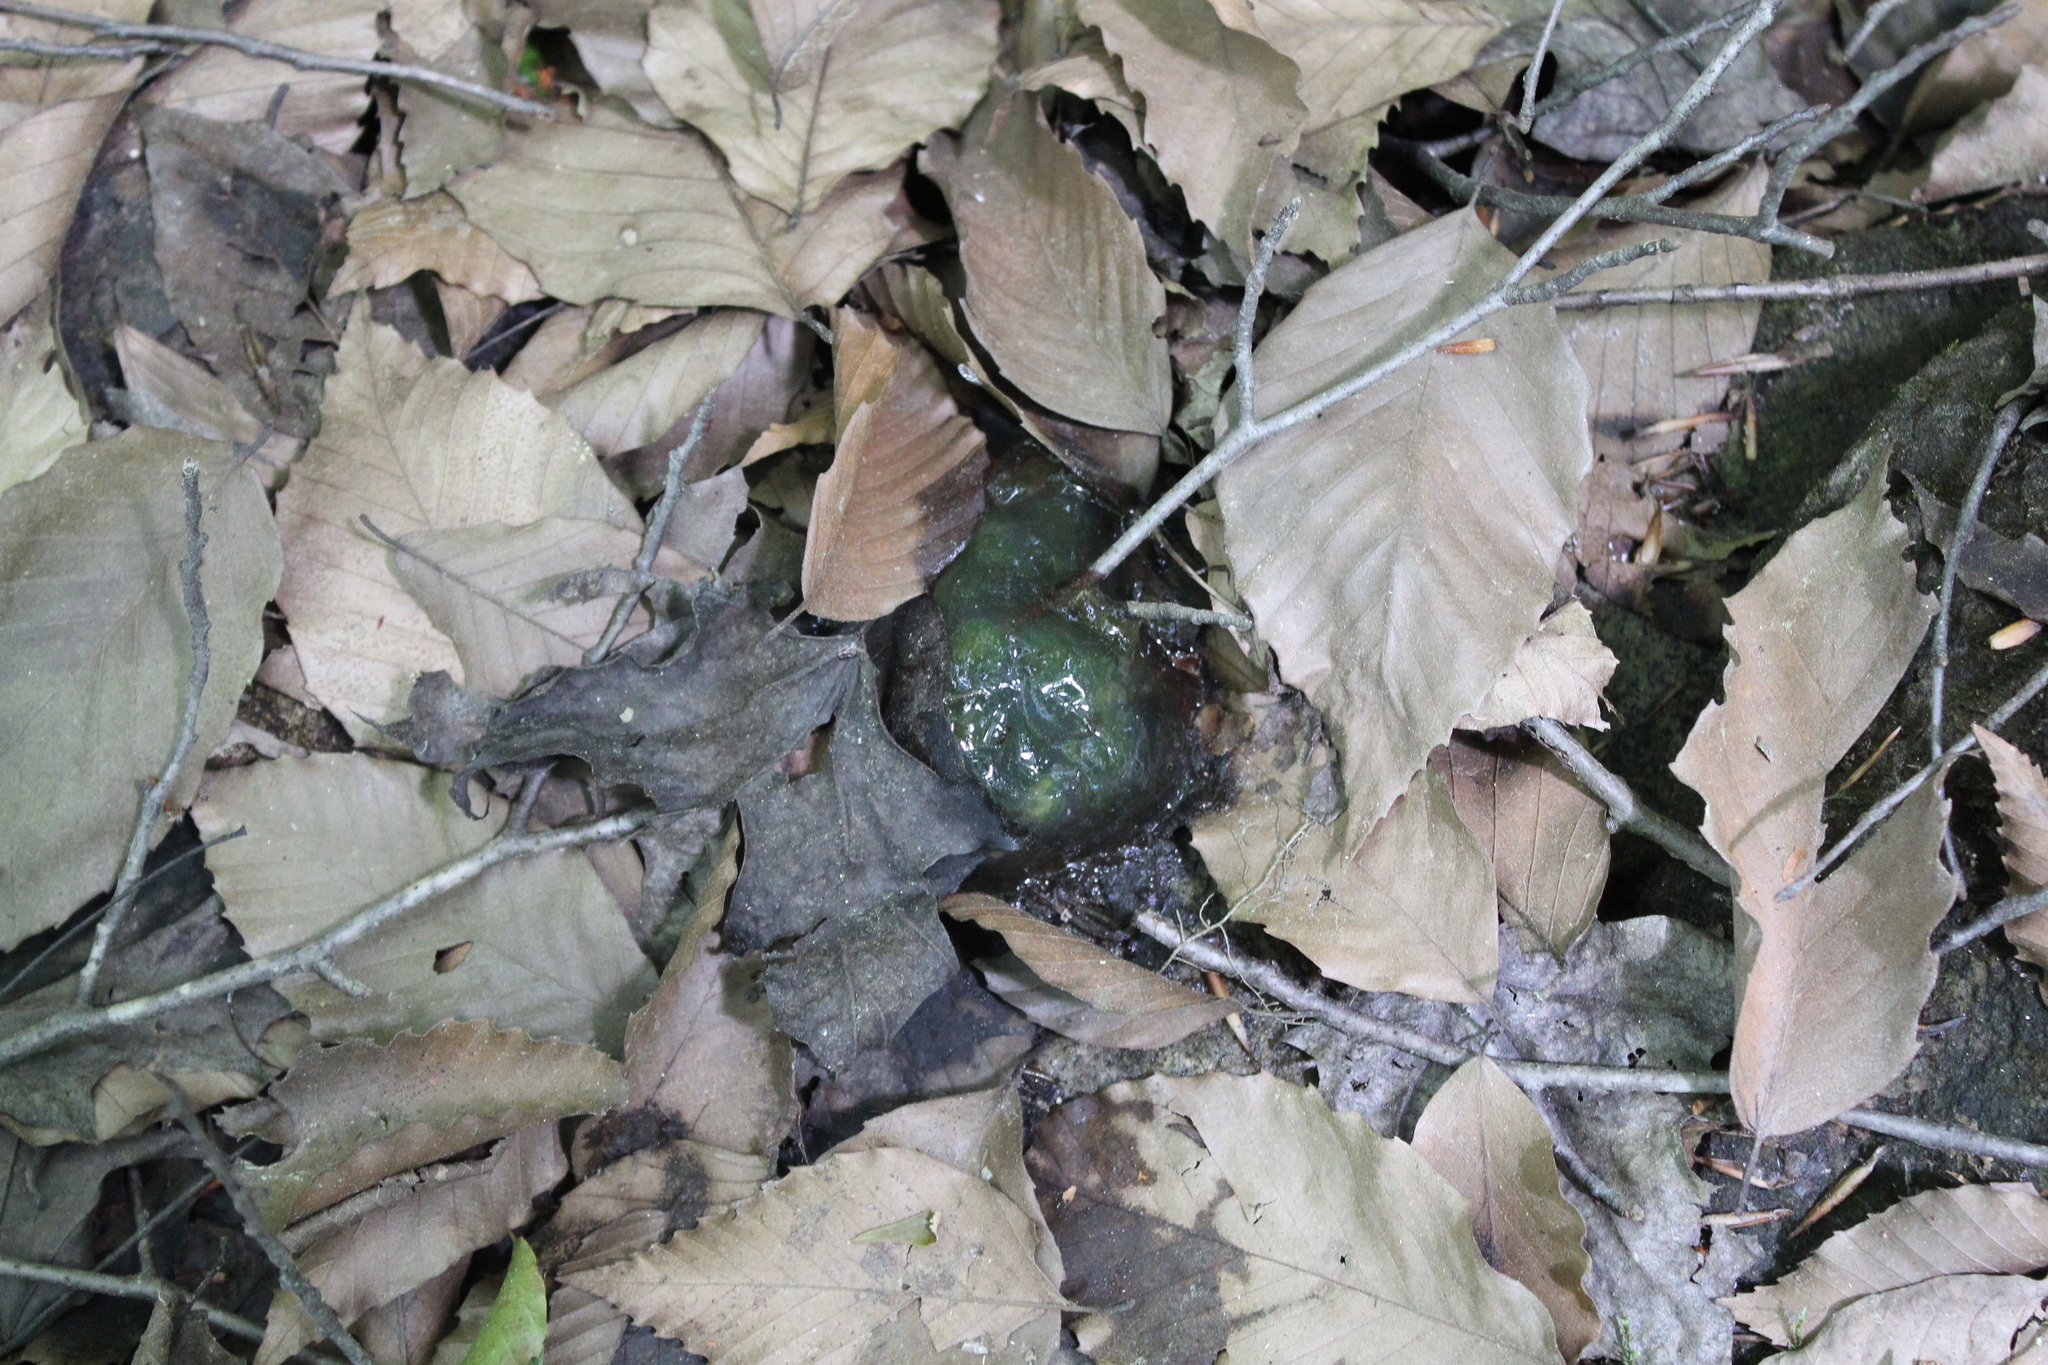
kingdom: Animalia
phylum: Chordata
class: Amphibia
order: Caudata
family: Ambystomatidae
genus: Ambystoma
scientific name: Ambystoma maculatum
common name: Spotted salamander
